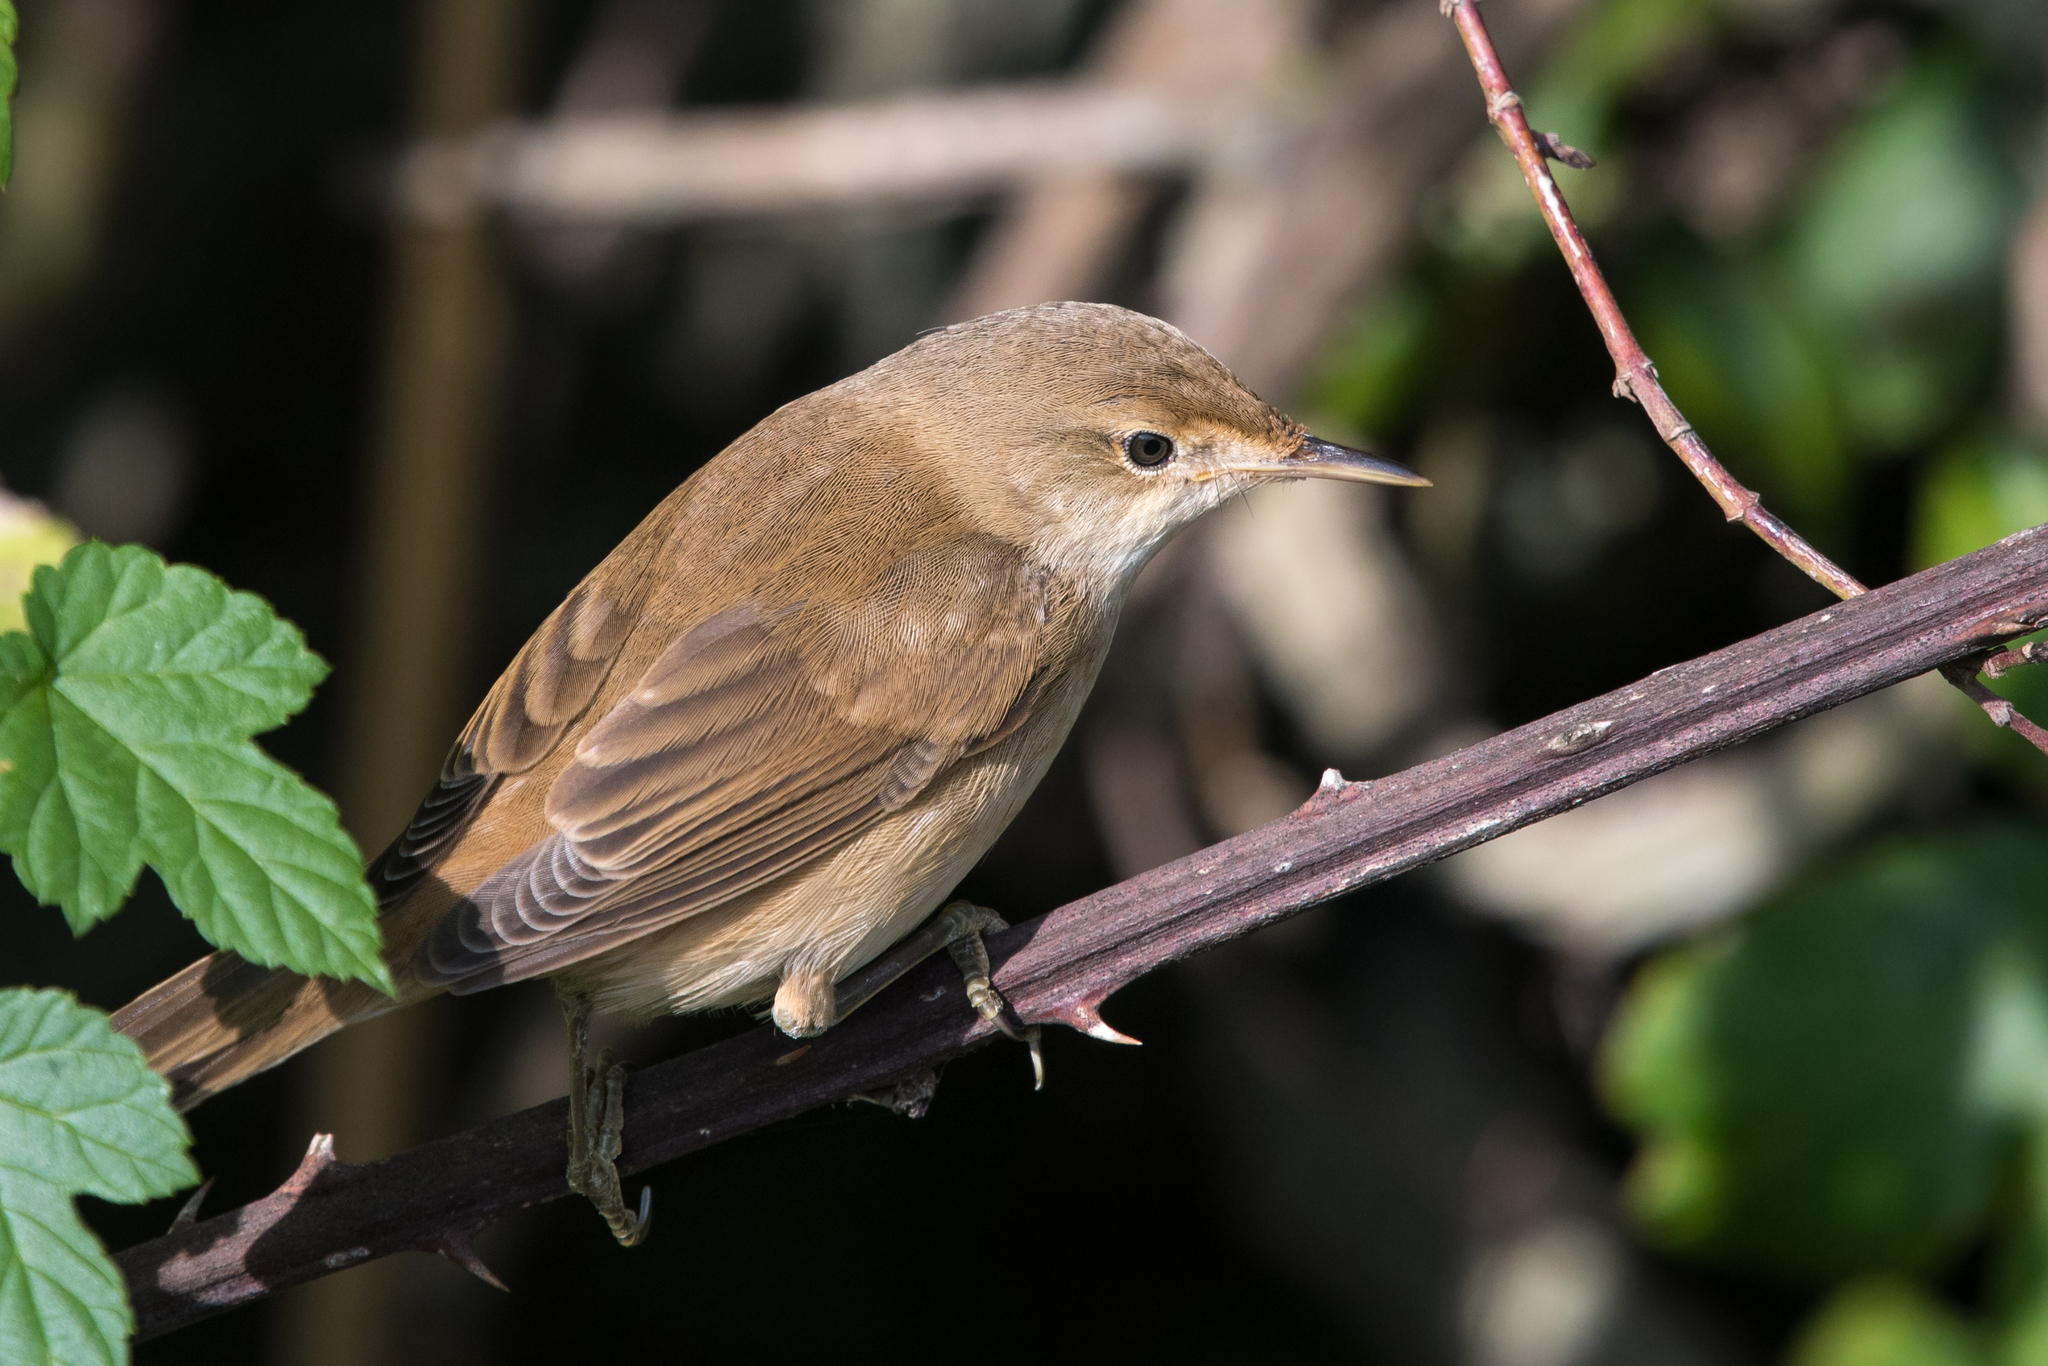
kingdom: Animalia
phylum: Chordata
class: Aves
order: Passeriformes
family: Acrocephalidae
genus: Acrocephalus
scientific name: Acrocephalus scirpaceus
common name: Eurasian reed warbler
